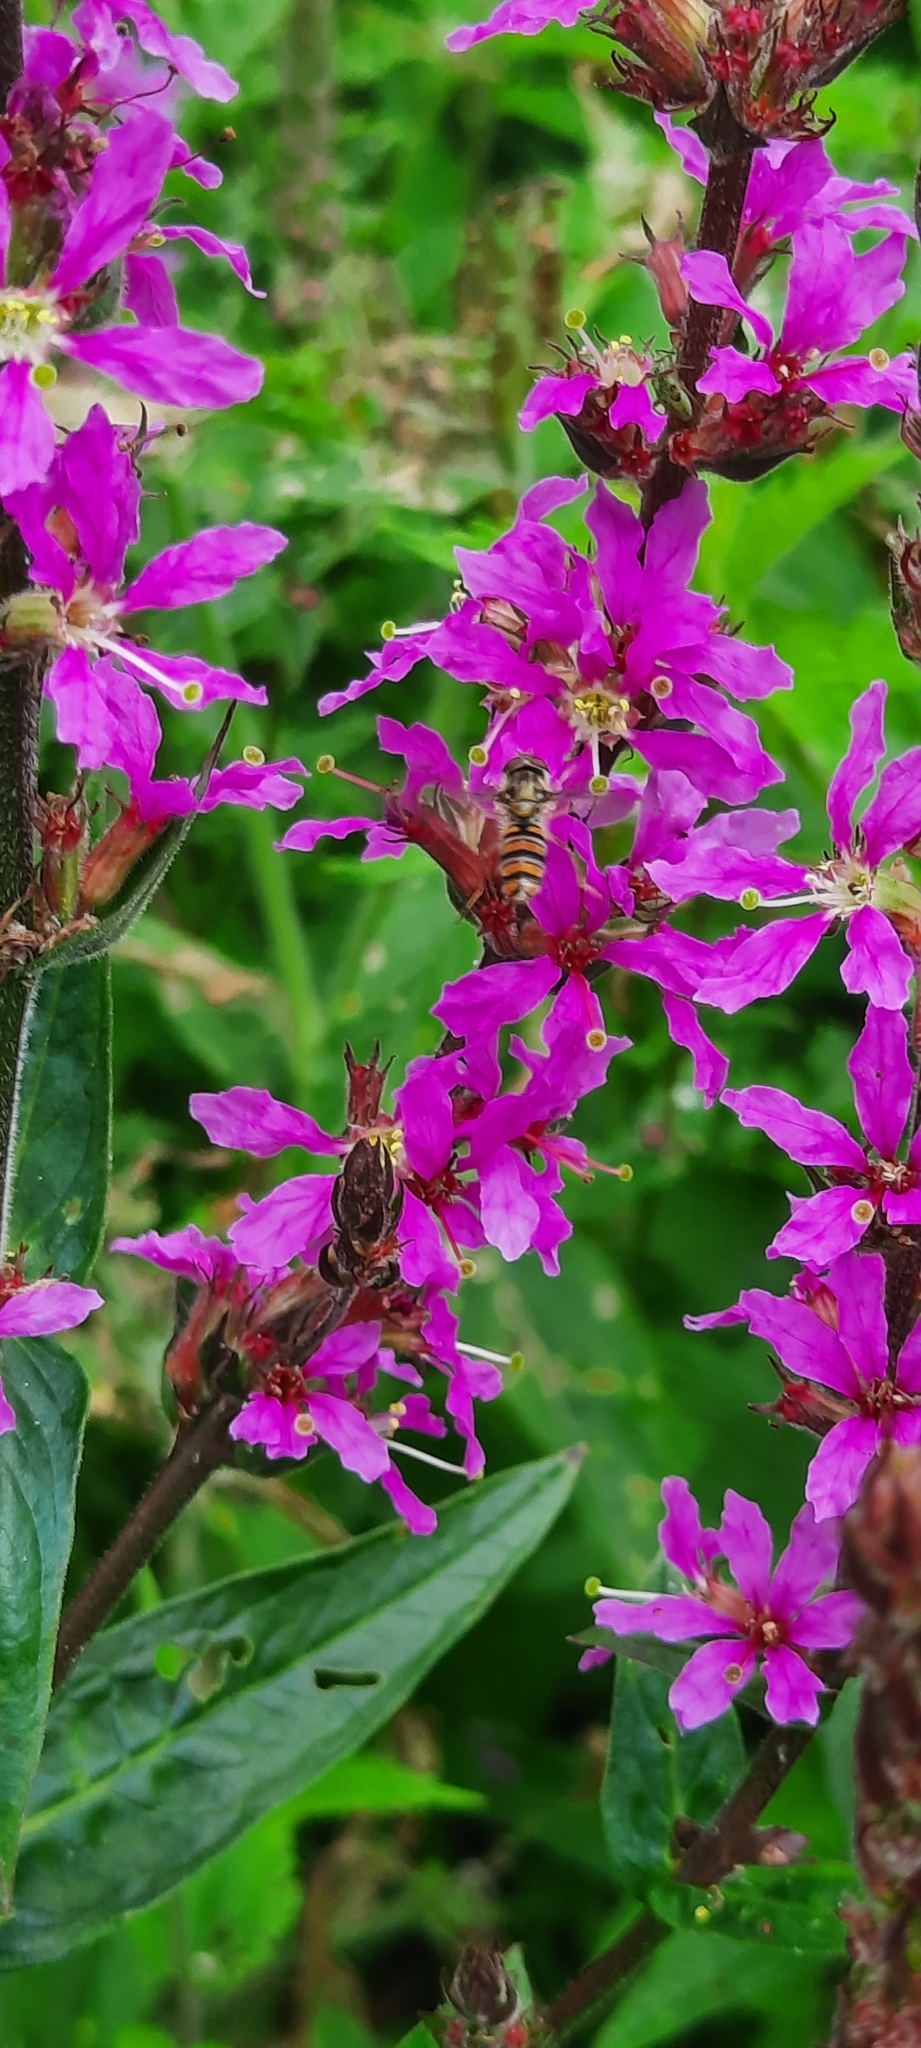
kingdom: Animalia
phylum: Arthropoda
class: Insecta
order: Diptera
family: Syrphidae
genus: Episyrphus
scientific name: Episyrphus balteatus
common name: Marmalade hoverfly
